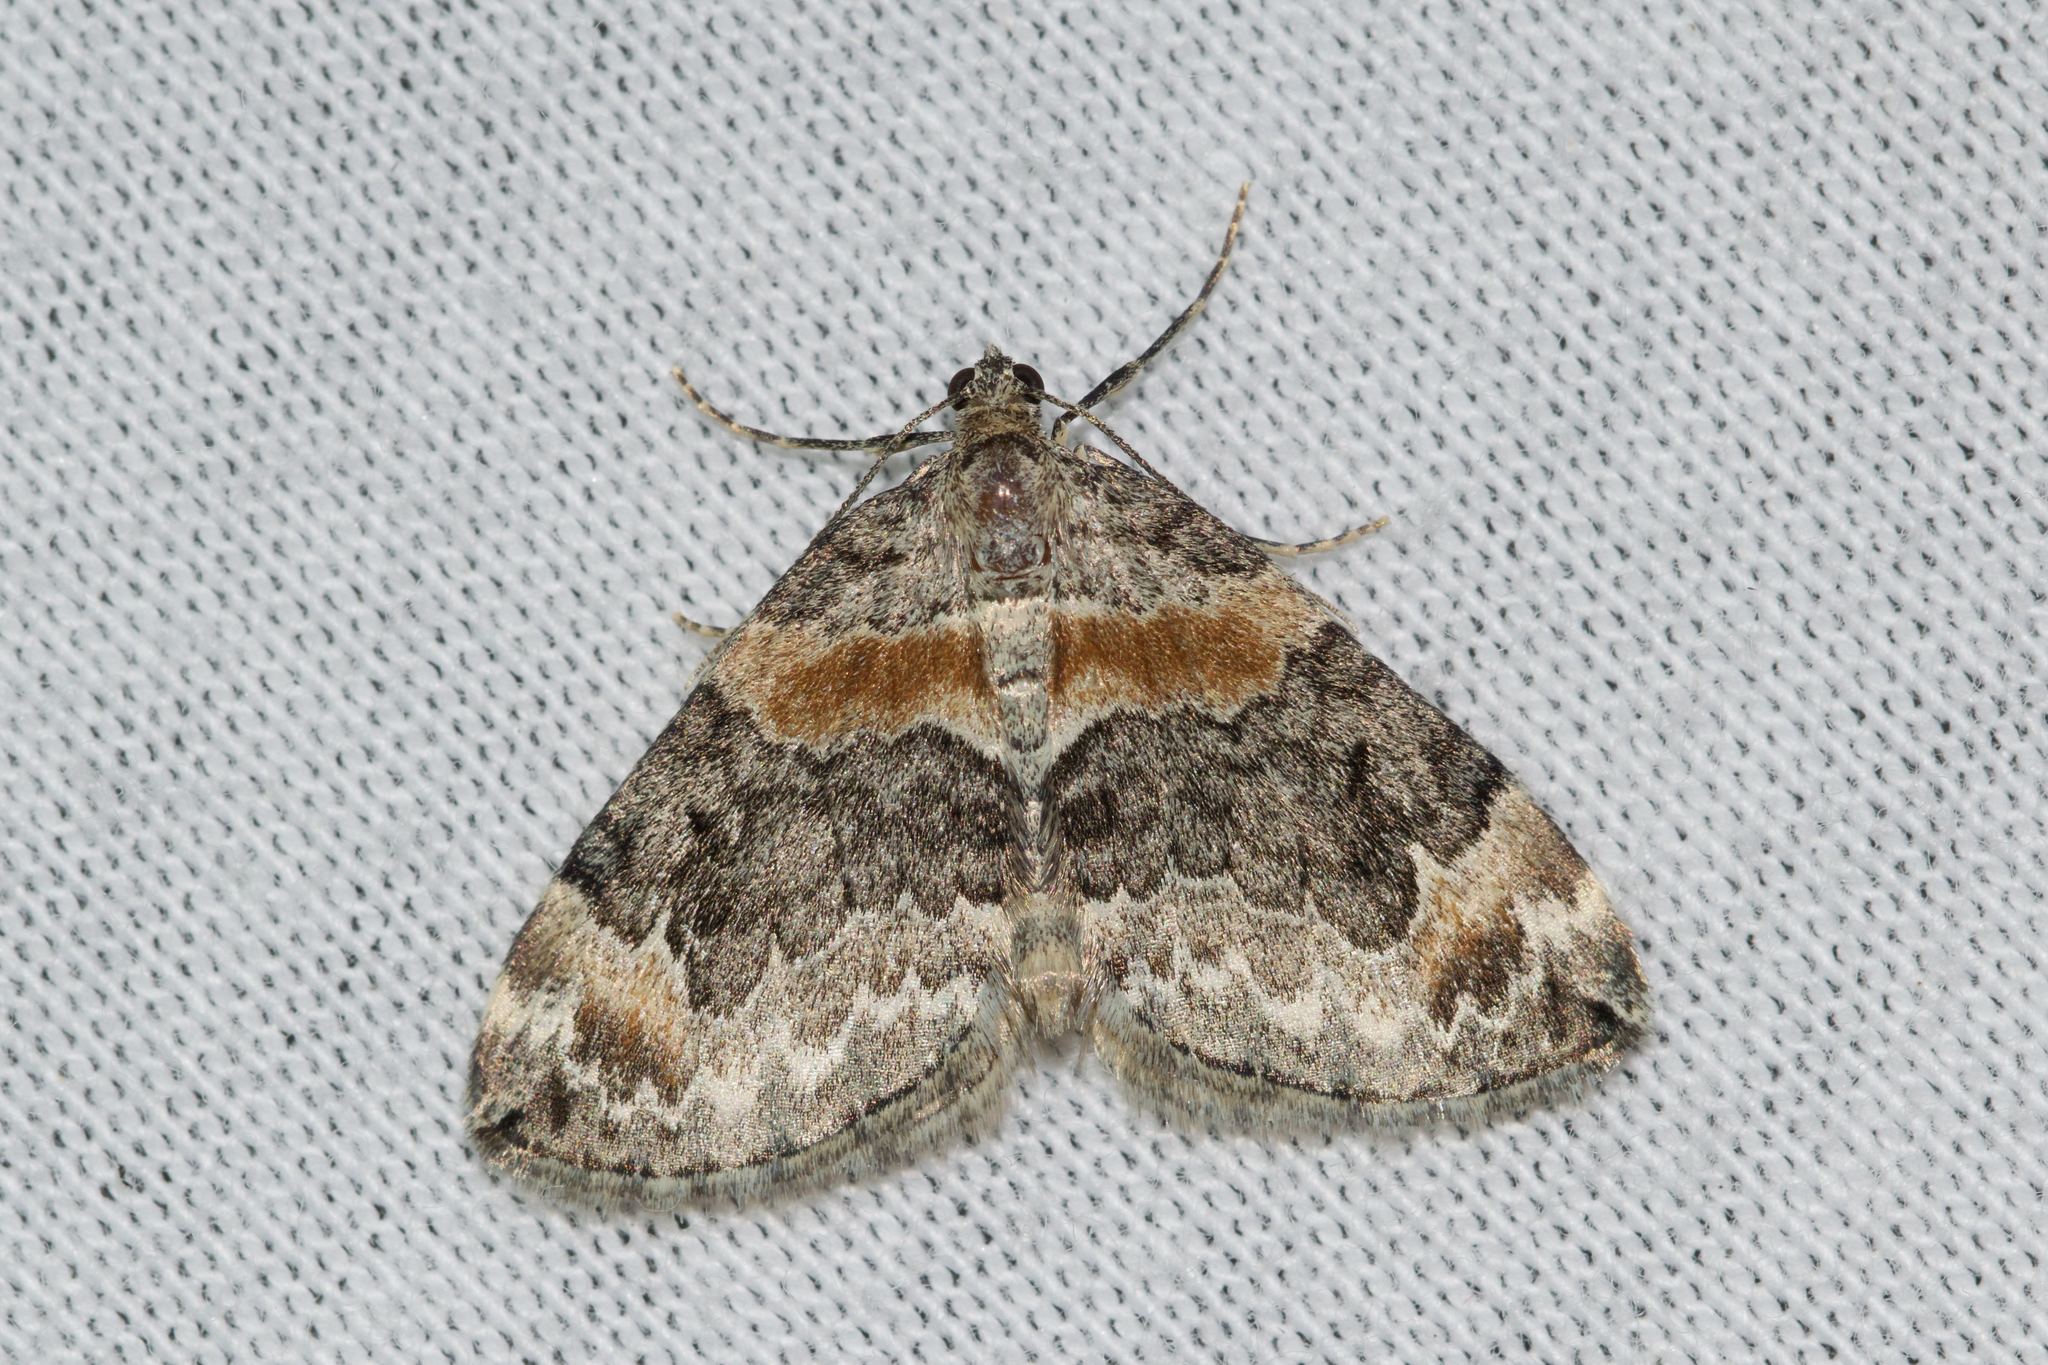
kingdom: Animalia
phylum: Arthropoda
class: Insecta
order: Lepidoptera
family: Geometridae
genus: Dysstroma
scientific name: Dysstroma hersiliata
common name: Orange-barred carpet
